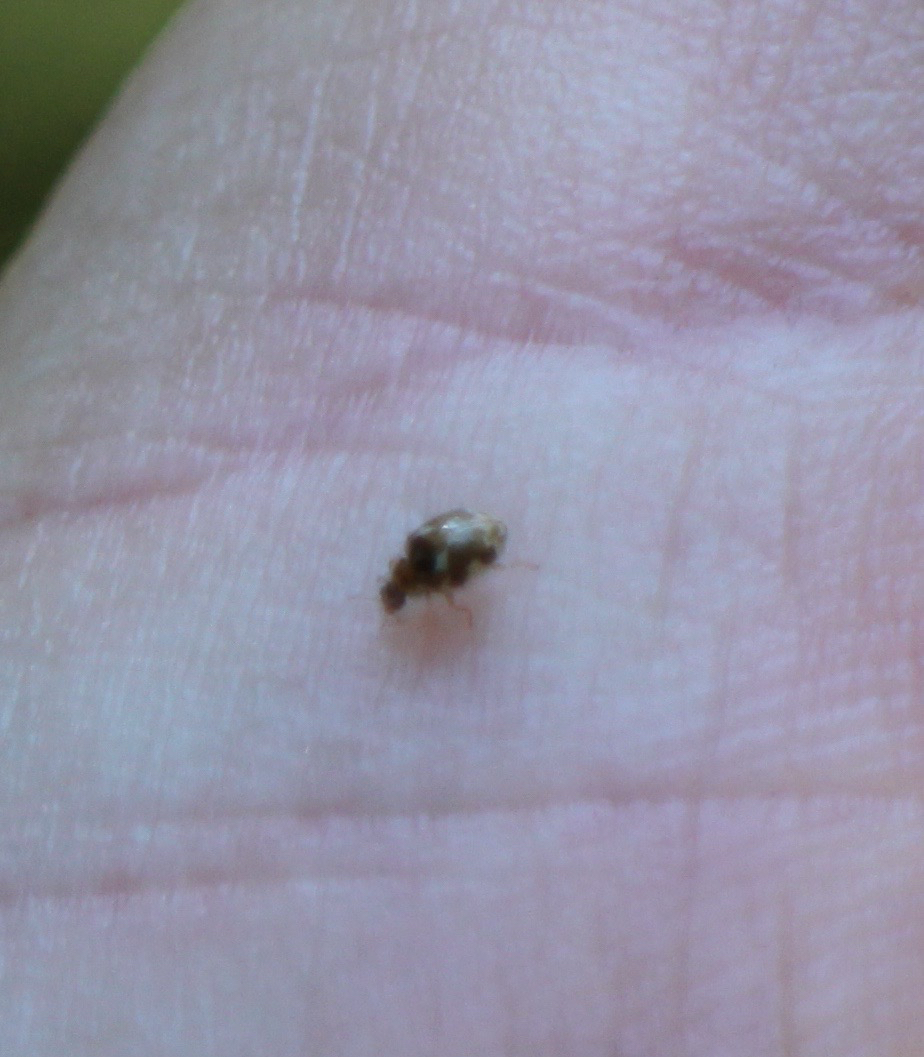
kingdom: Animalia
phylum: Arthropoda
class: Insecta
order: Coleoptera
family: Coccinellidae
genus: Psyllobora
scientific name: Psyllobora vigintimaculata
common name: Ladybird beetle
